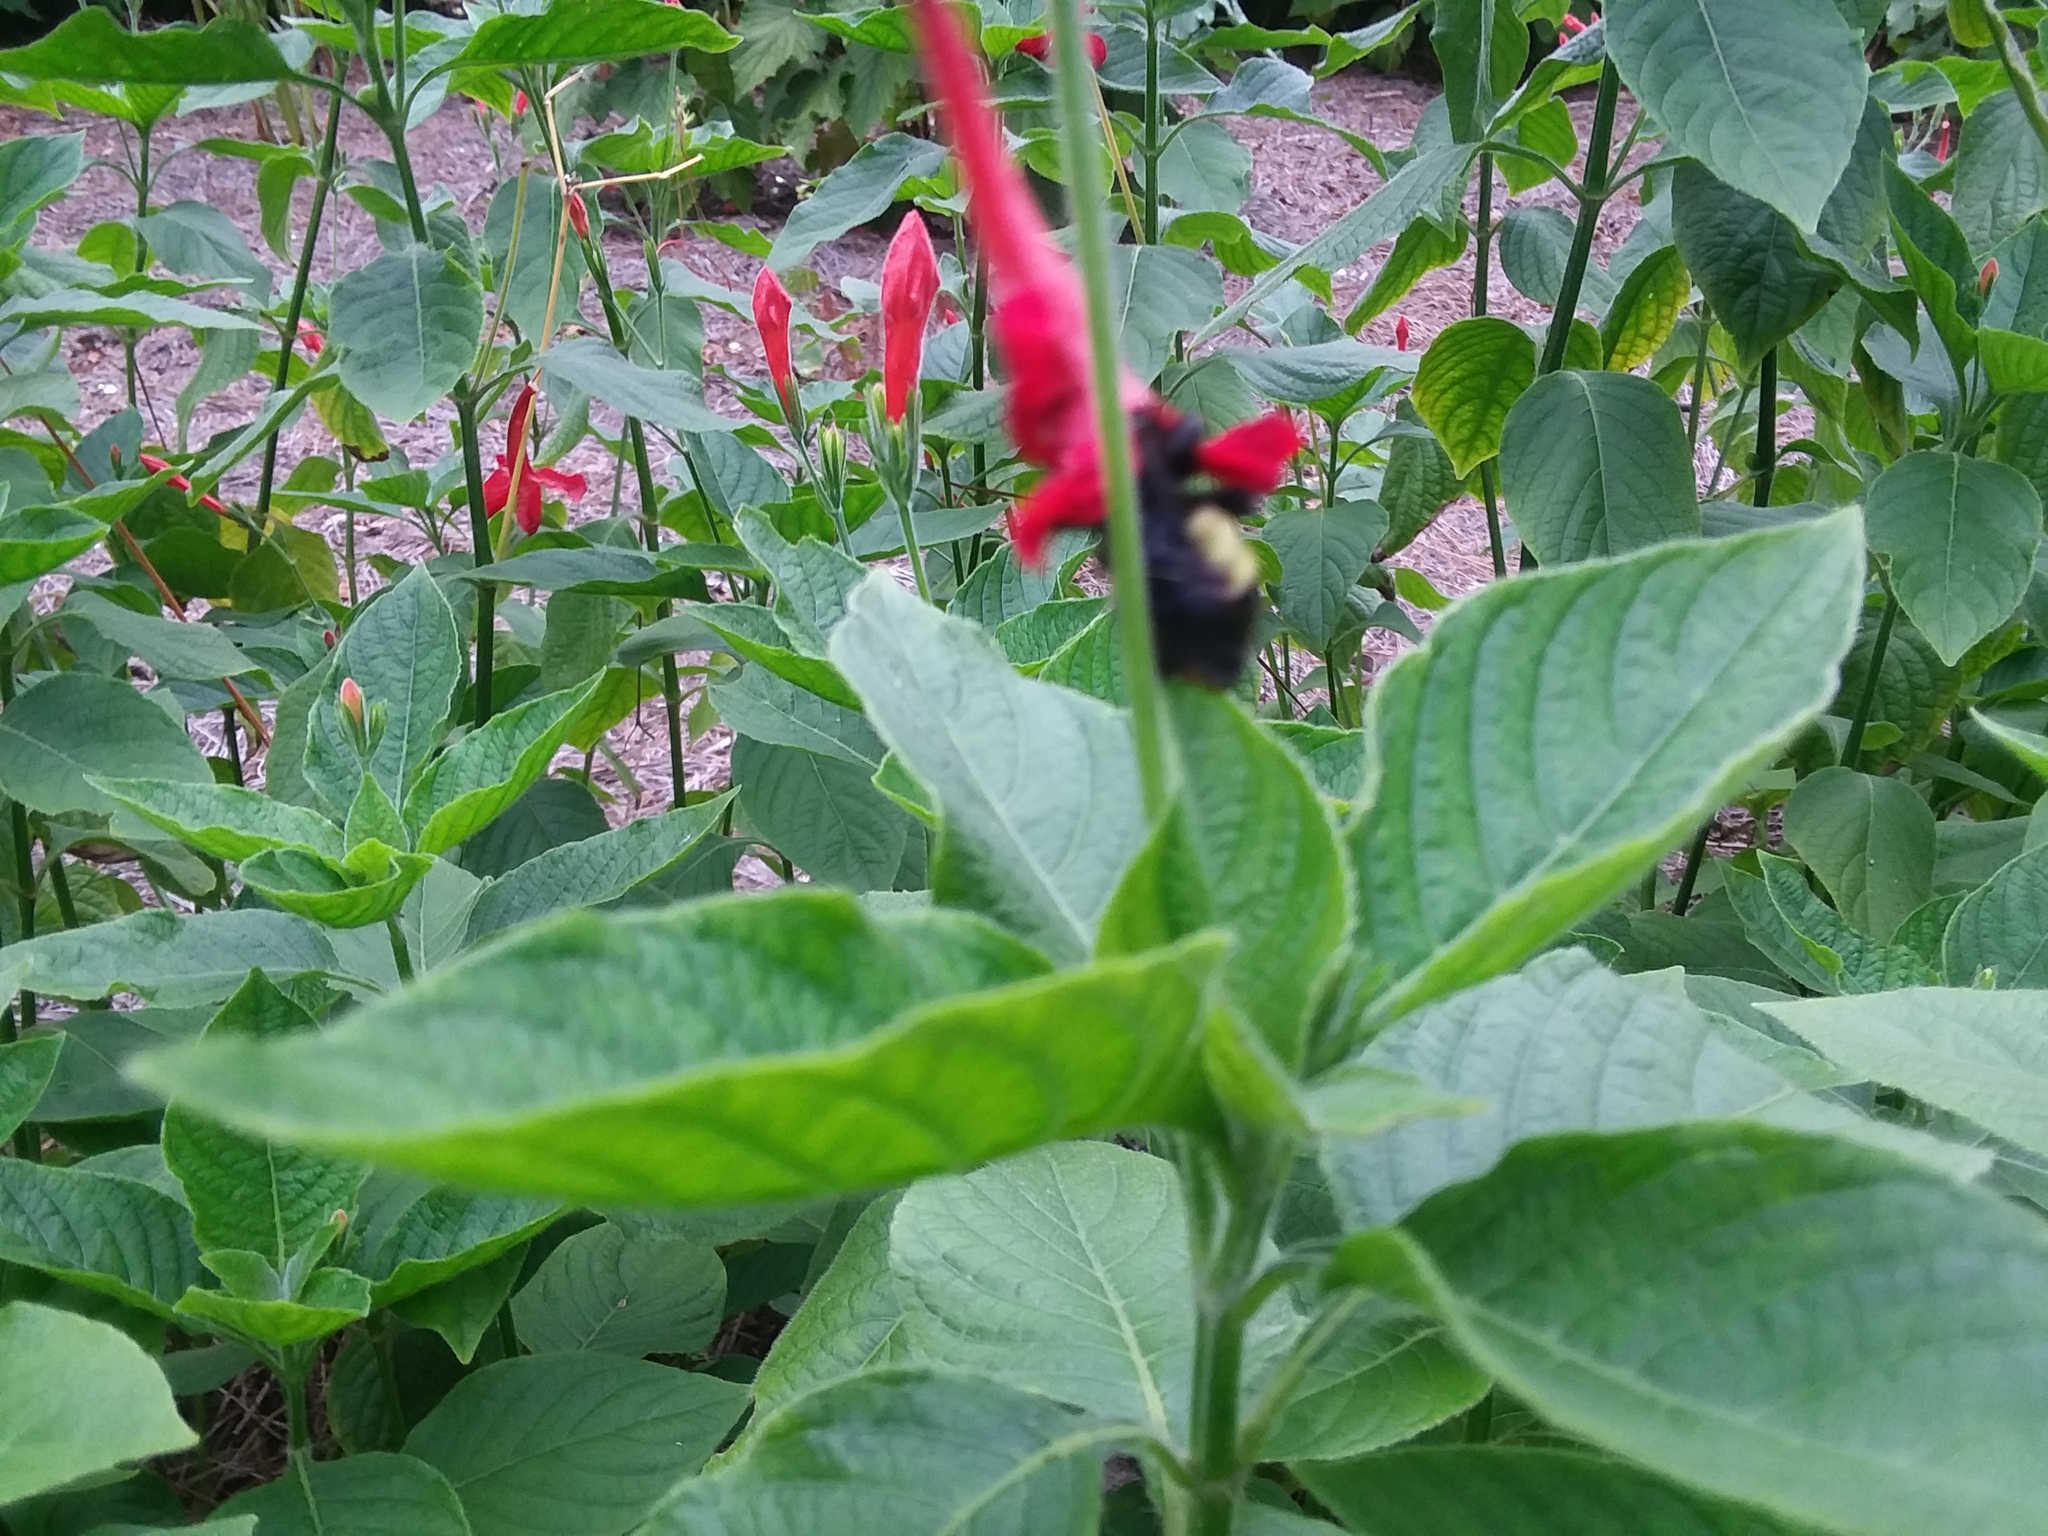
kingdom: Animalia
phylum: Arthropoda
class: Insecta
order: Hymenoptera
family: Apidae
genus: Bombus
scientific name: Bombus pensylvanicus
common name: Bumble bee
